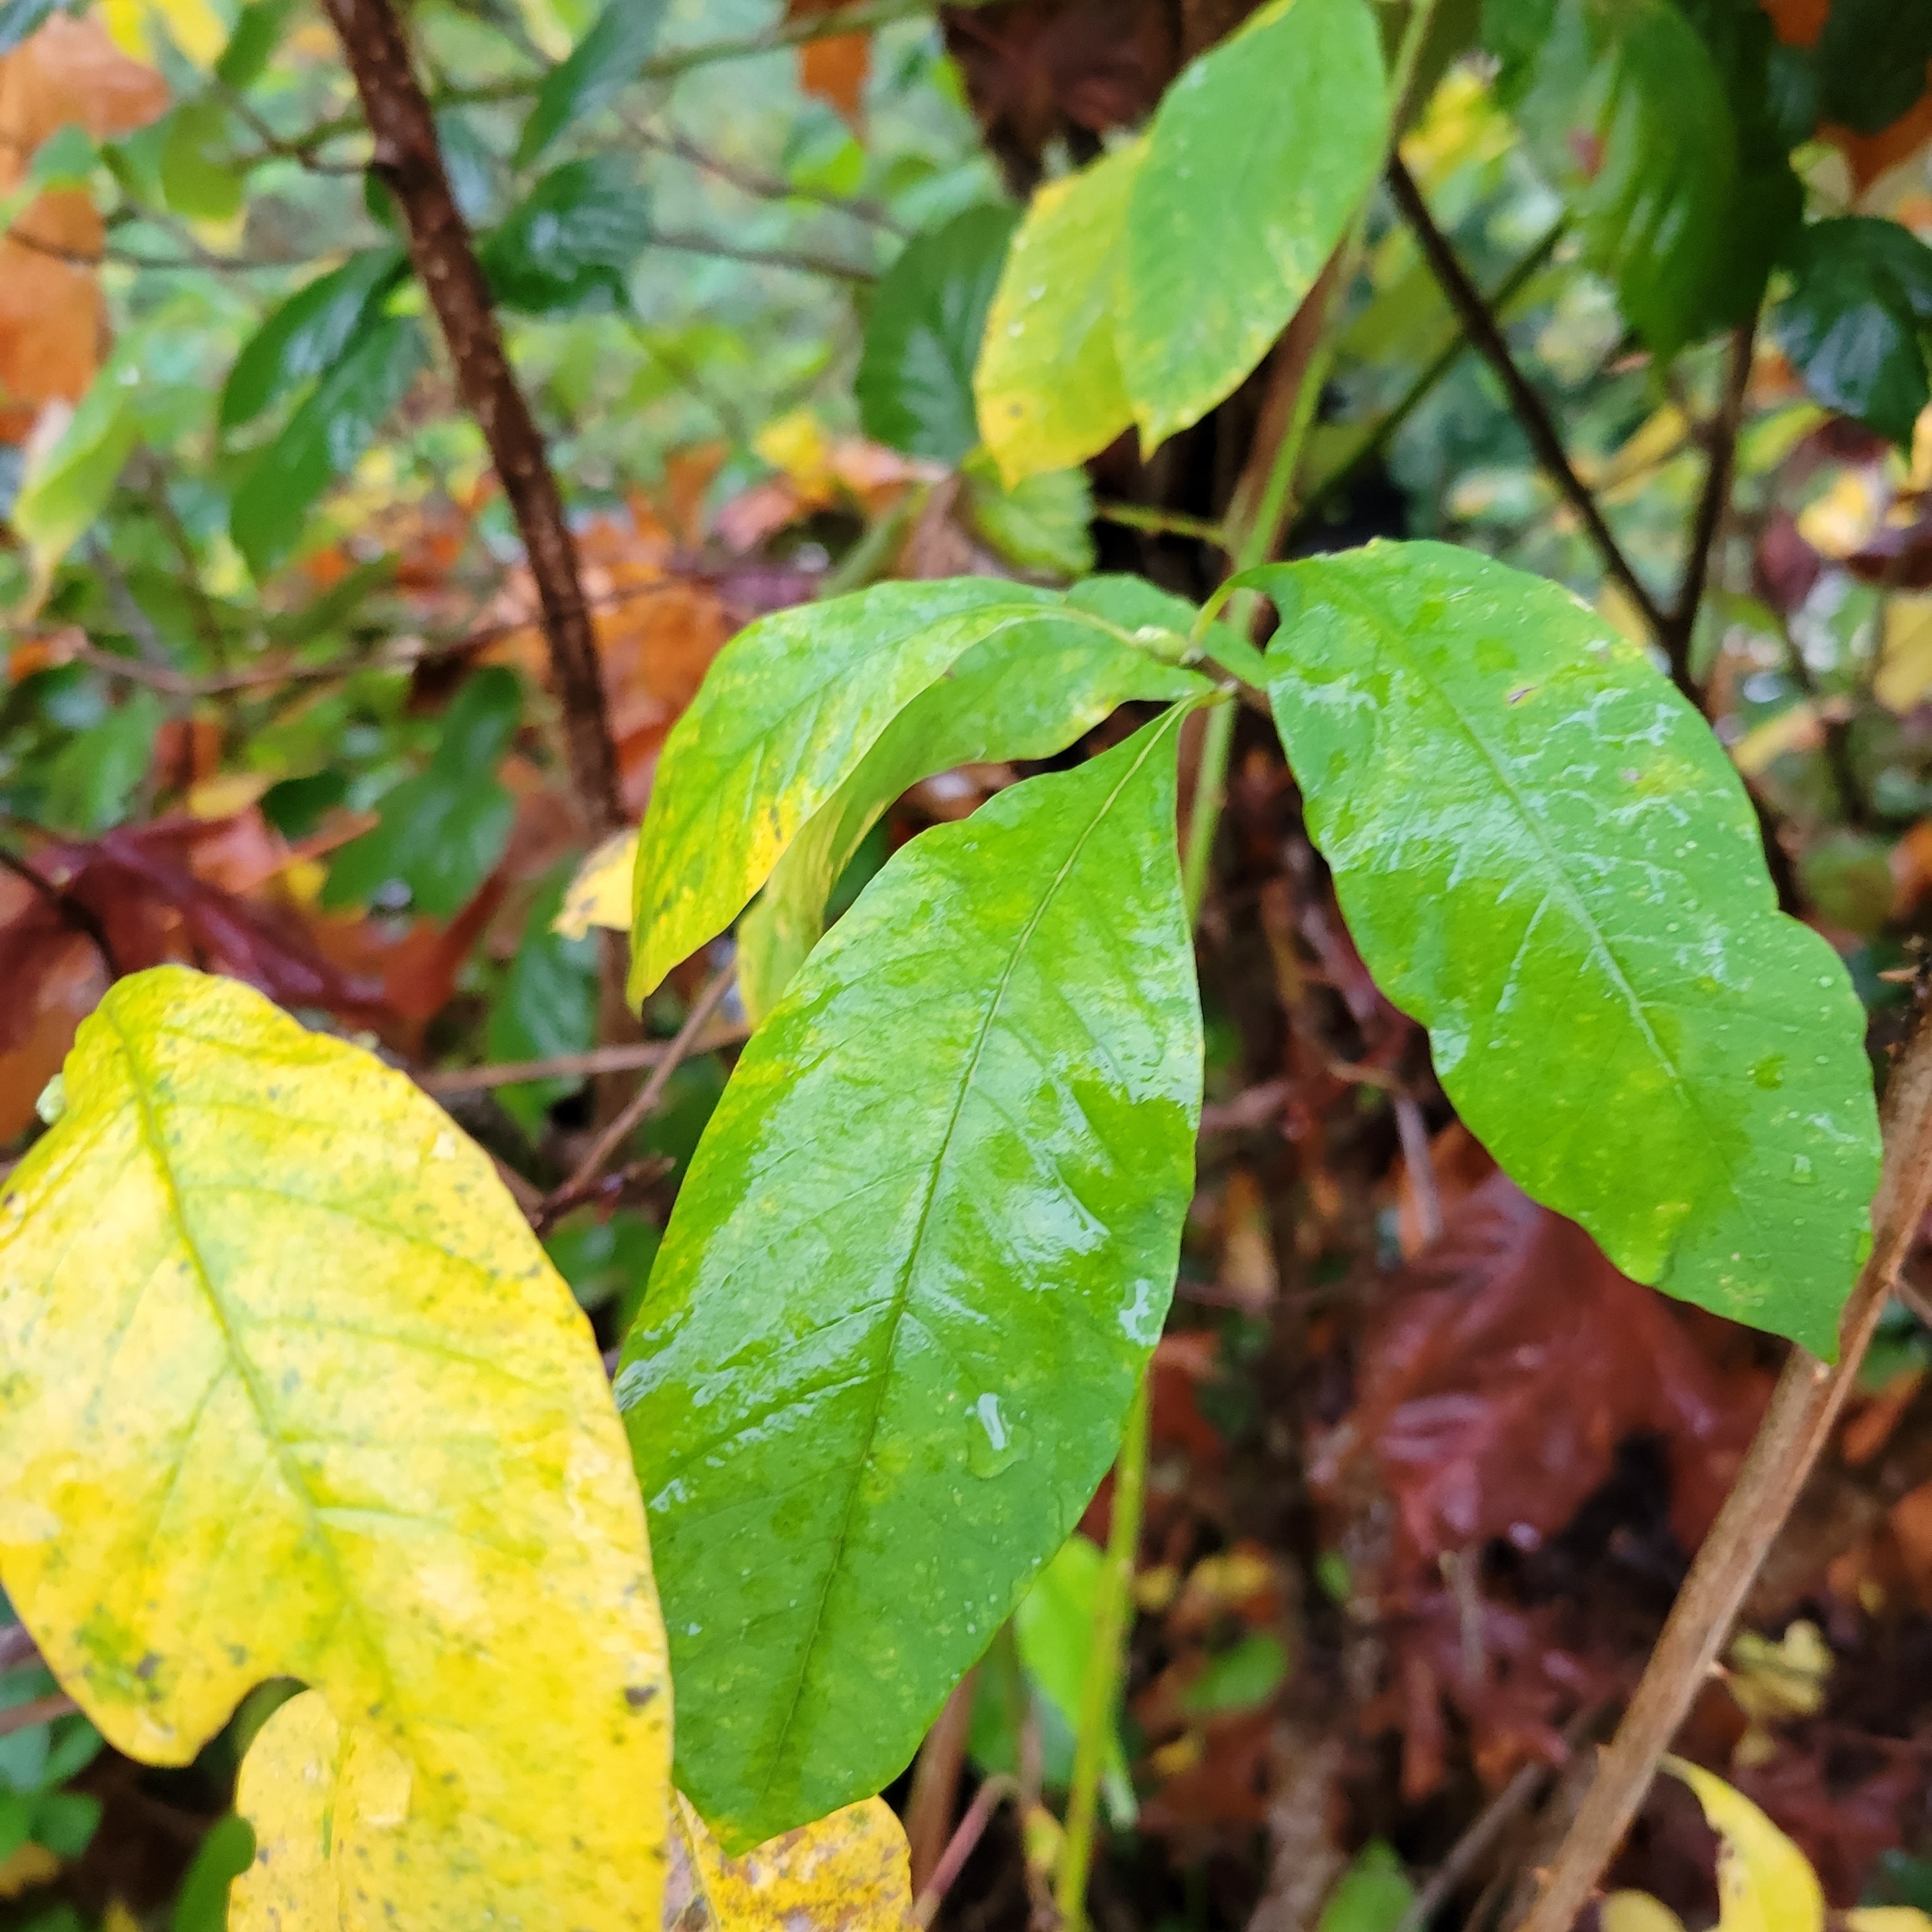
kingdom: Plantae
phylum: Tracheophyta
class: Magnoliopsida
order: Rosales
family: Rosaceae
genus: Oemleria
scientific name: Oemleria cerasiformis
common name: Osoberry
